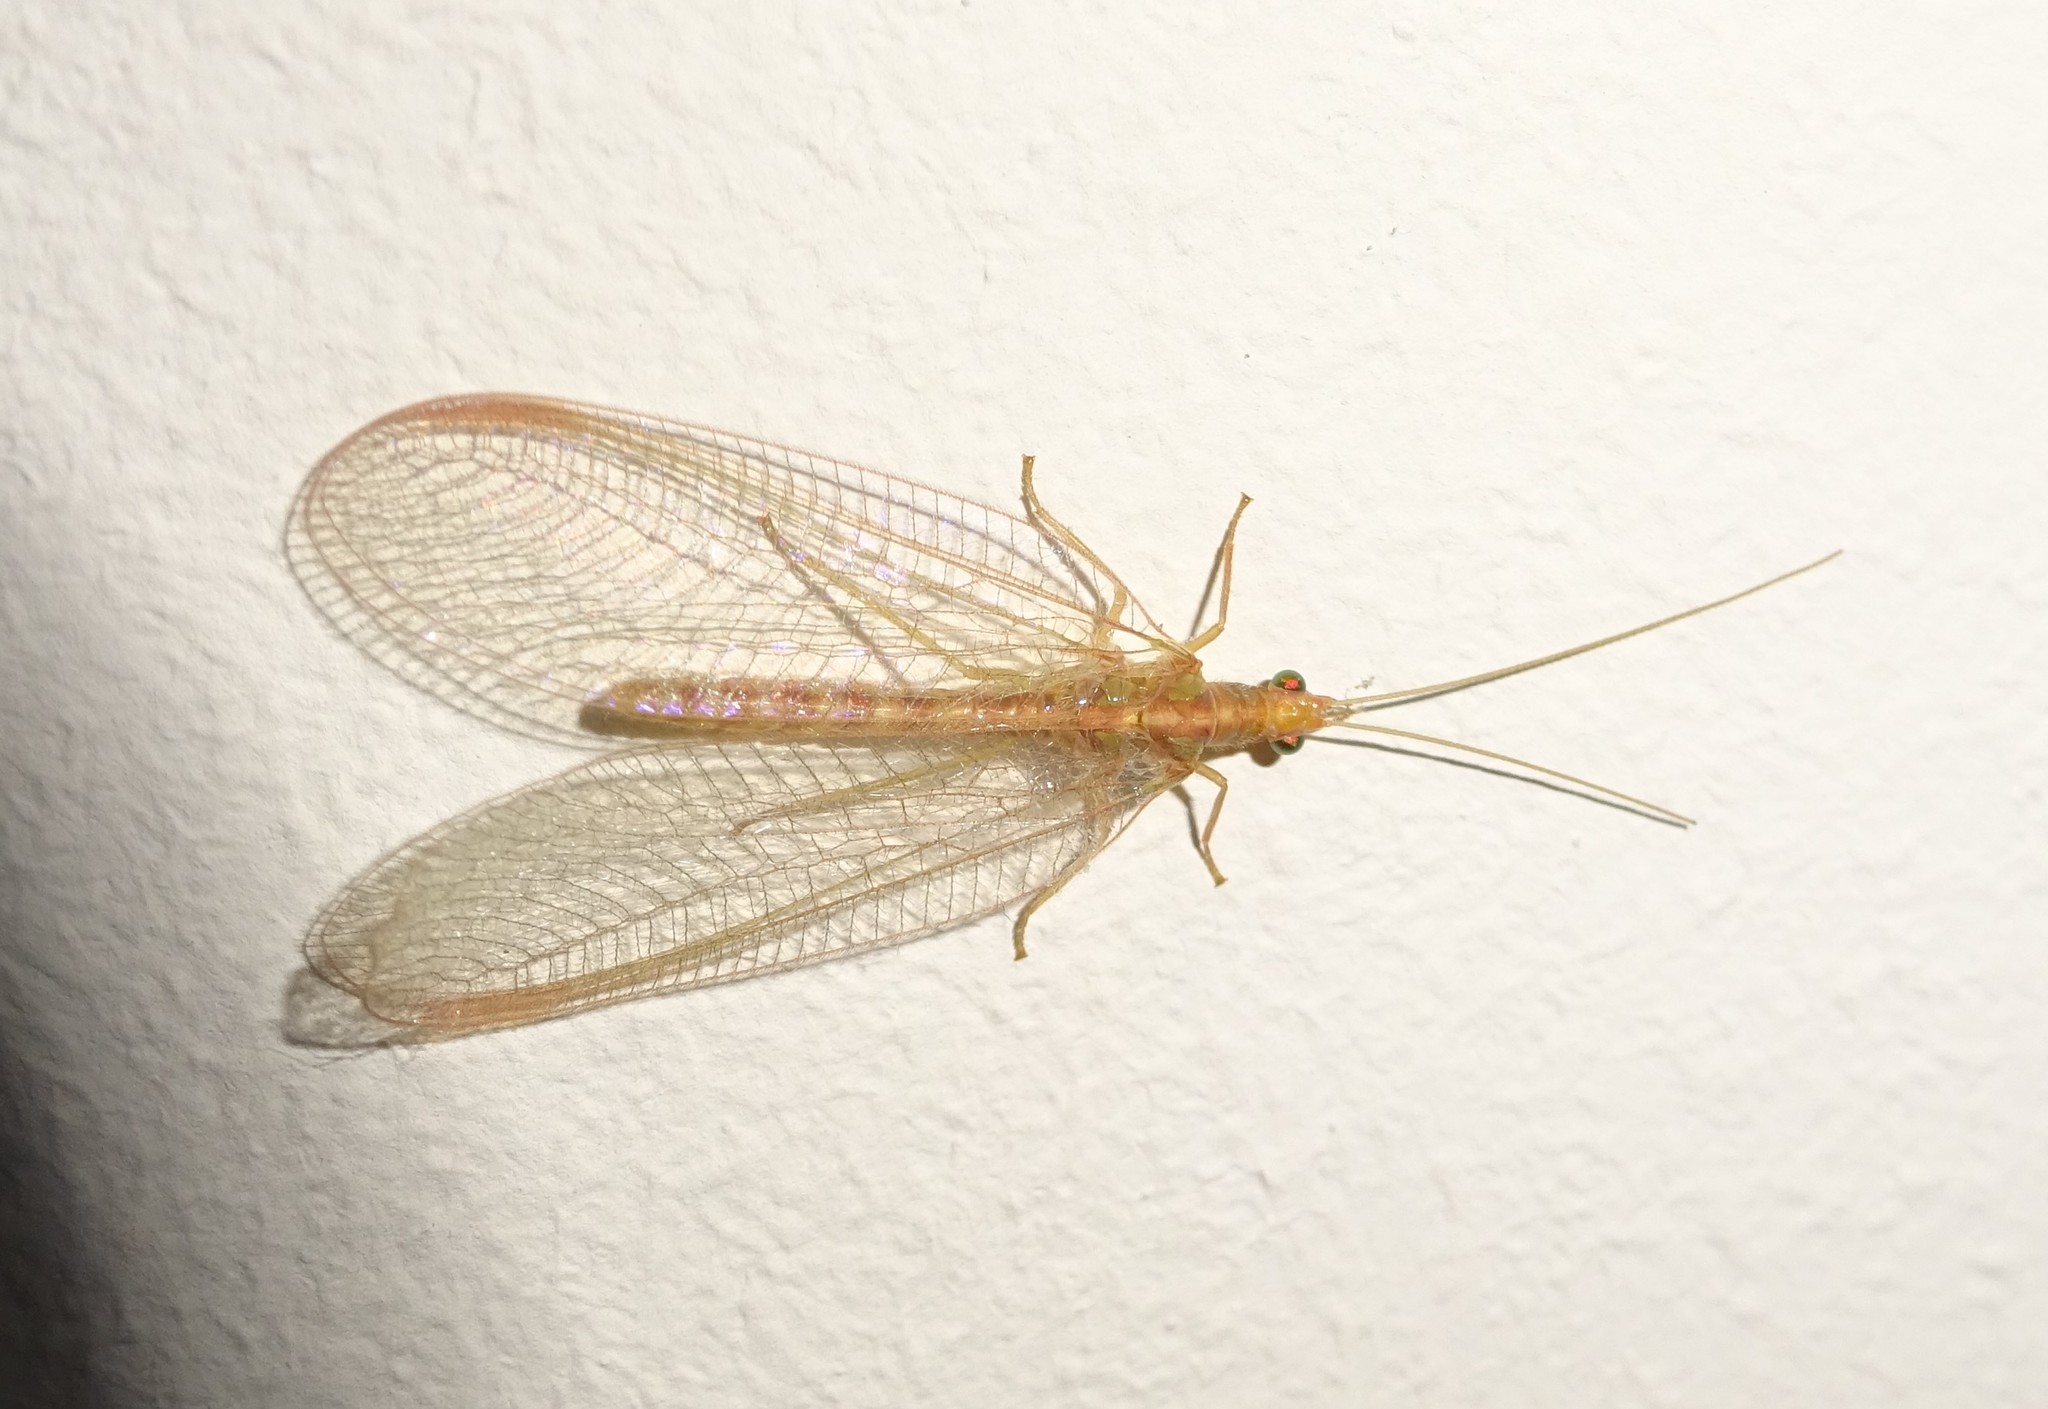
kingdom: Animalia
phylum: Arthropoda
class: Insecta
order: Neuroptera
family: Chrysopidae
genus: Chrysoperla
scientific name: Chrysoperla
